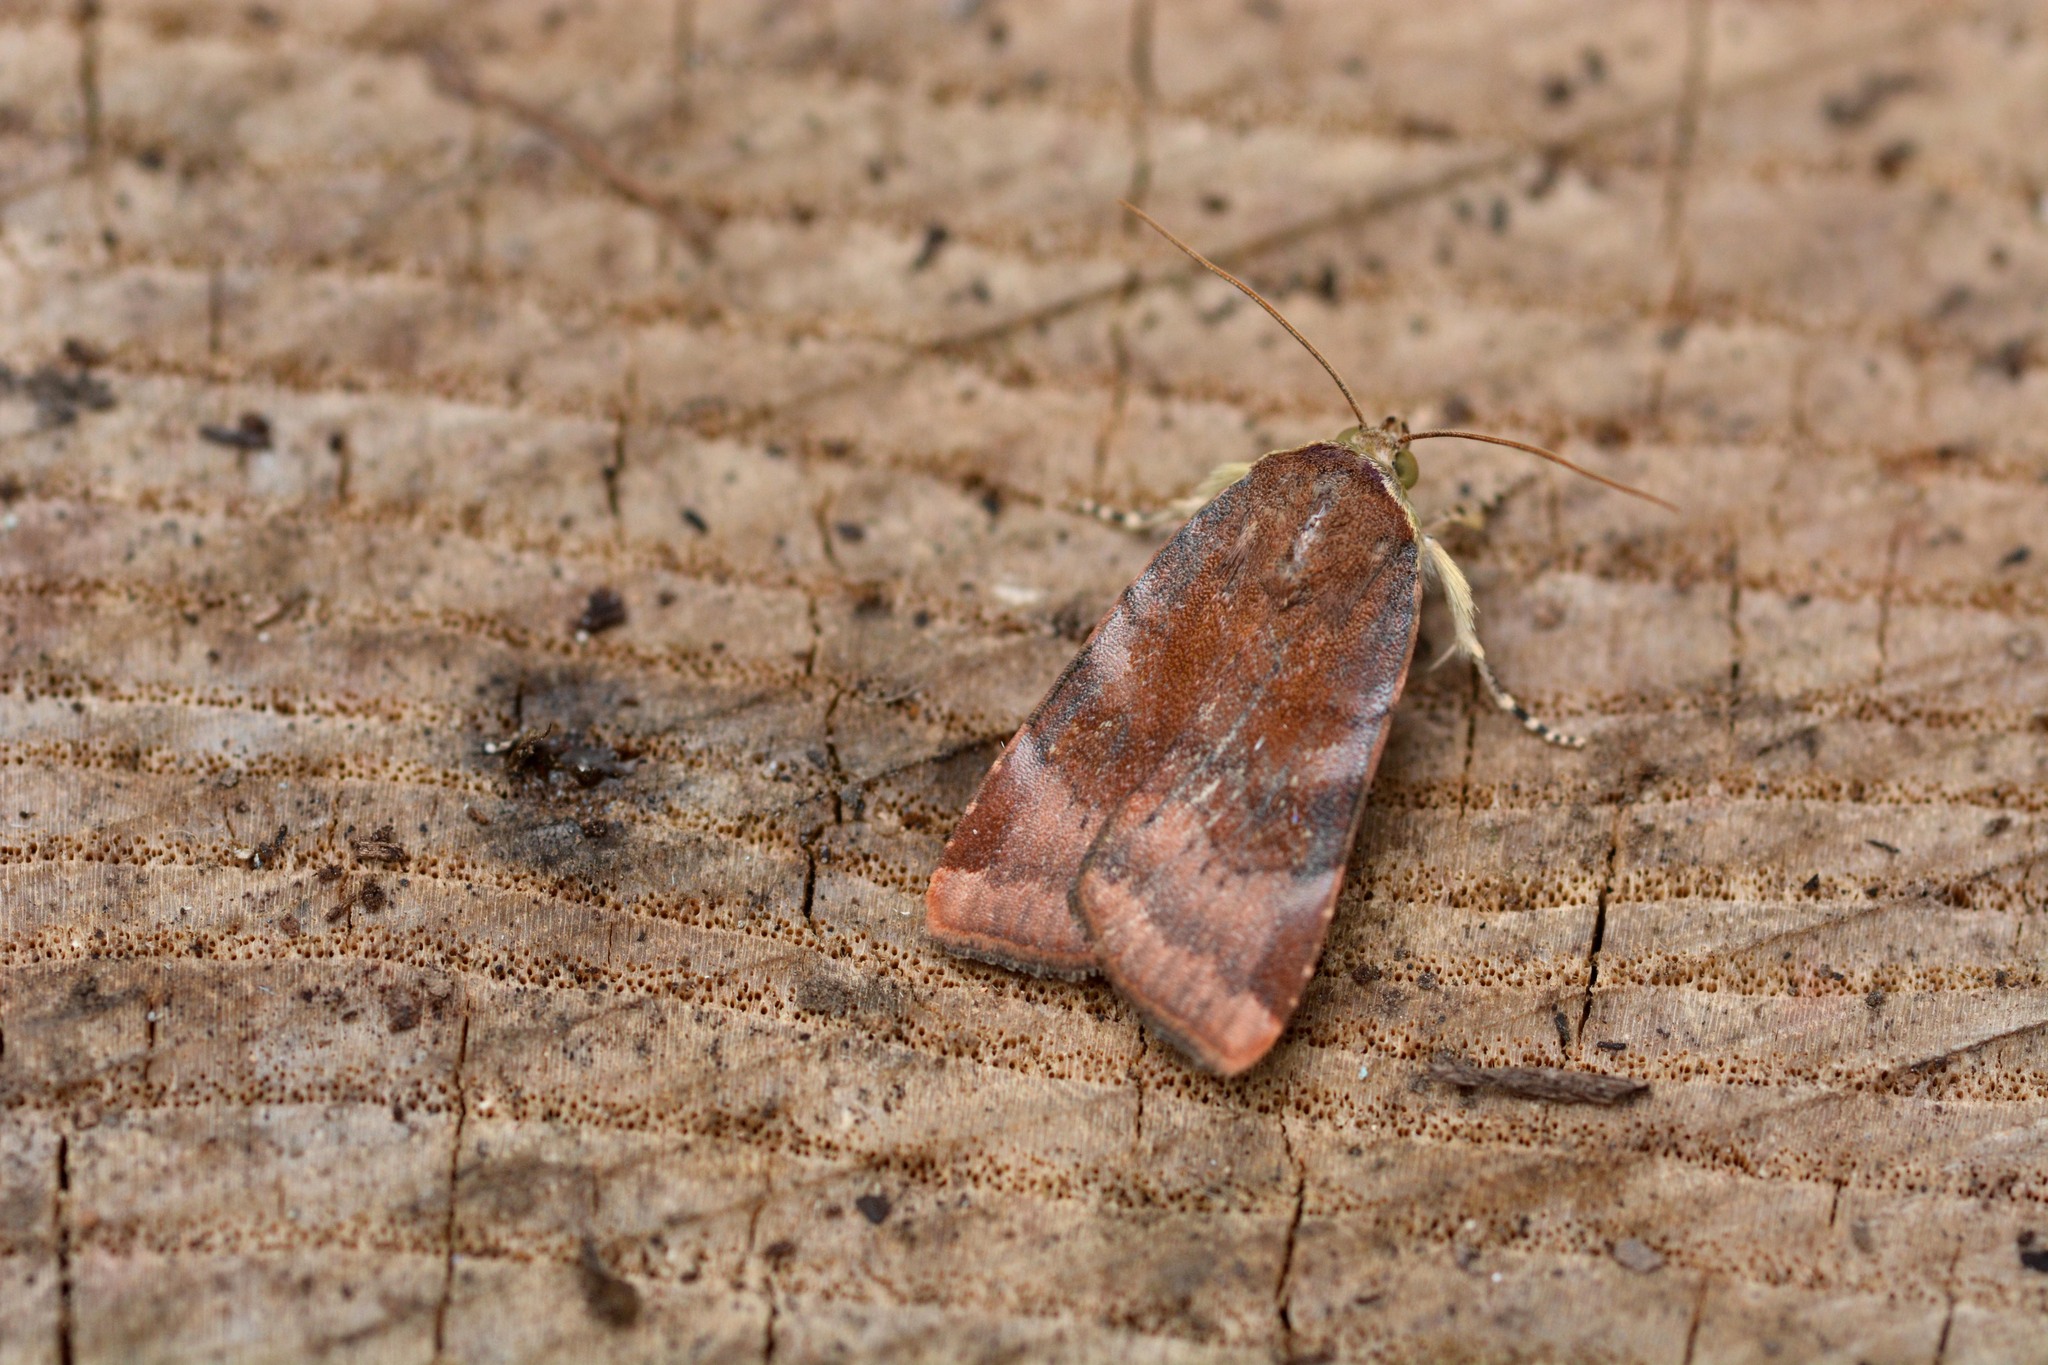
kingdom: Animalia
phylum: Arthropoda
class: Insecta
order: Lepidoptera
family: Noctuidae
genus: Noctua
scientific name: Noctua janthe
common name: Lesser broad-bordered yellow underwing
